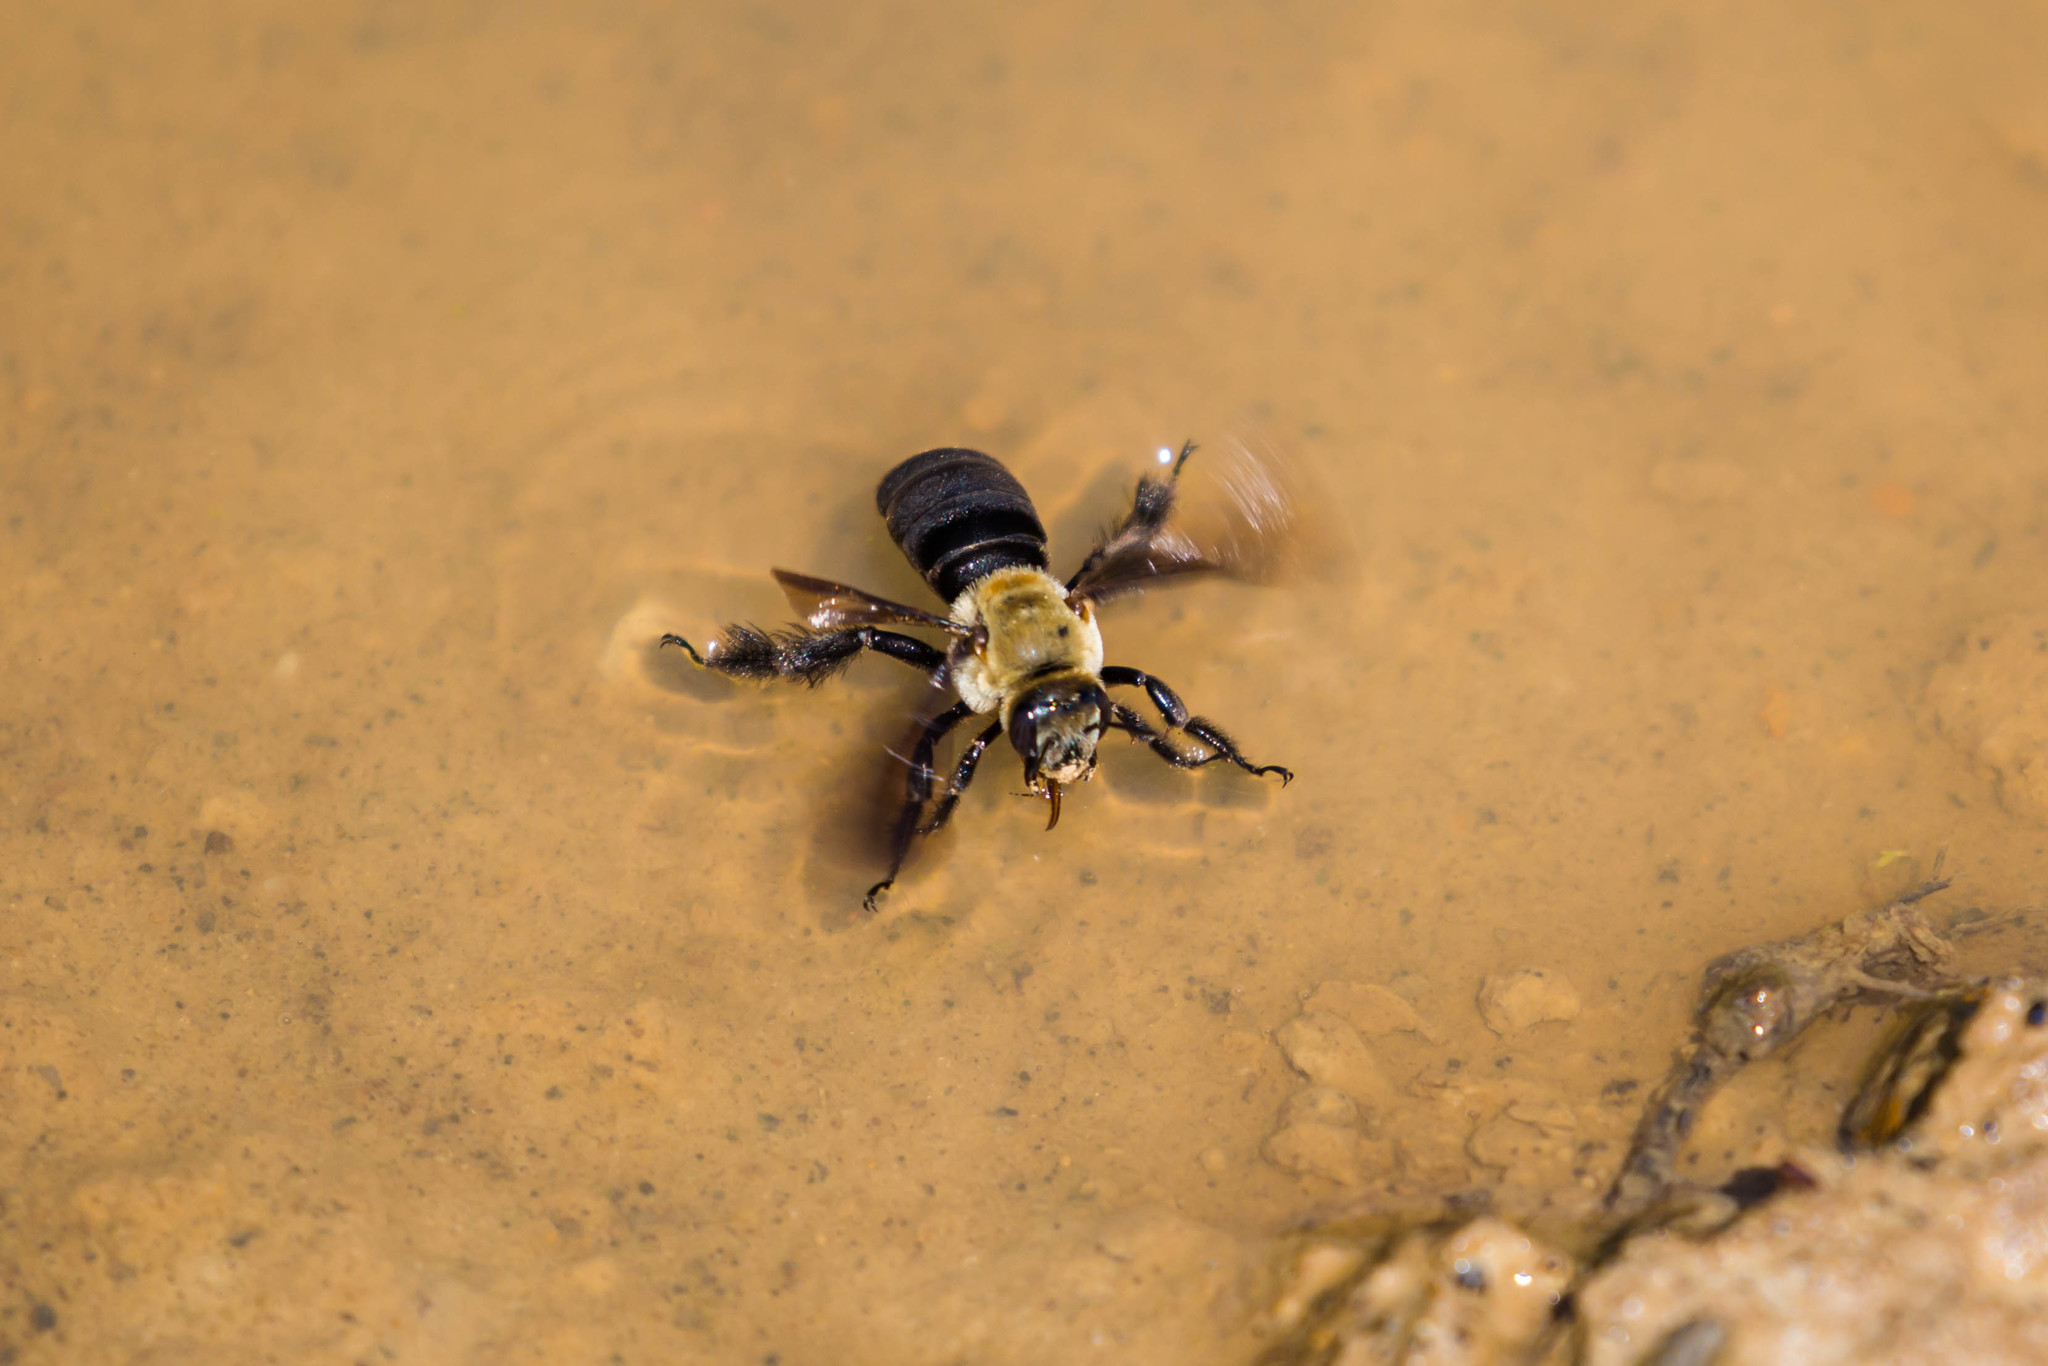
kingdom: Animalia
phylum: Arthropoda
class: Insecta
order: Hymenoptera
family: Apidae
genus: Ptilothrix
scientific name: Ptilothrix bombiformis
